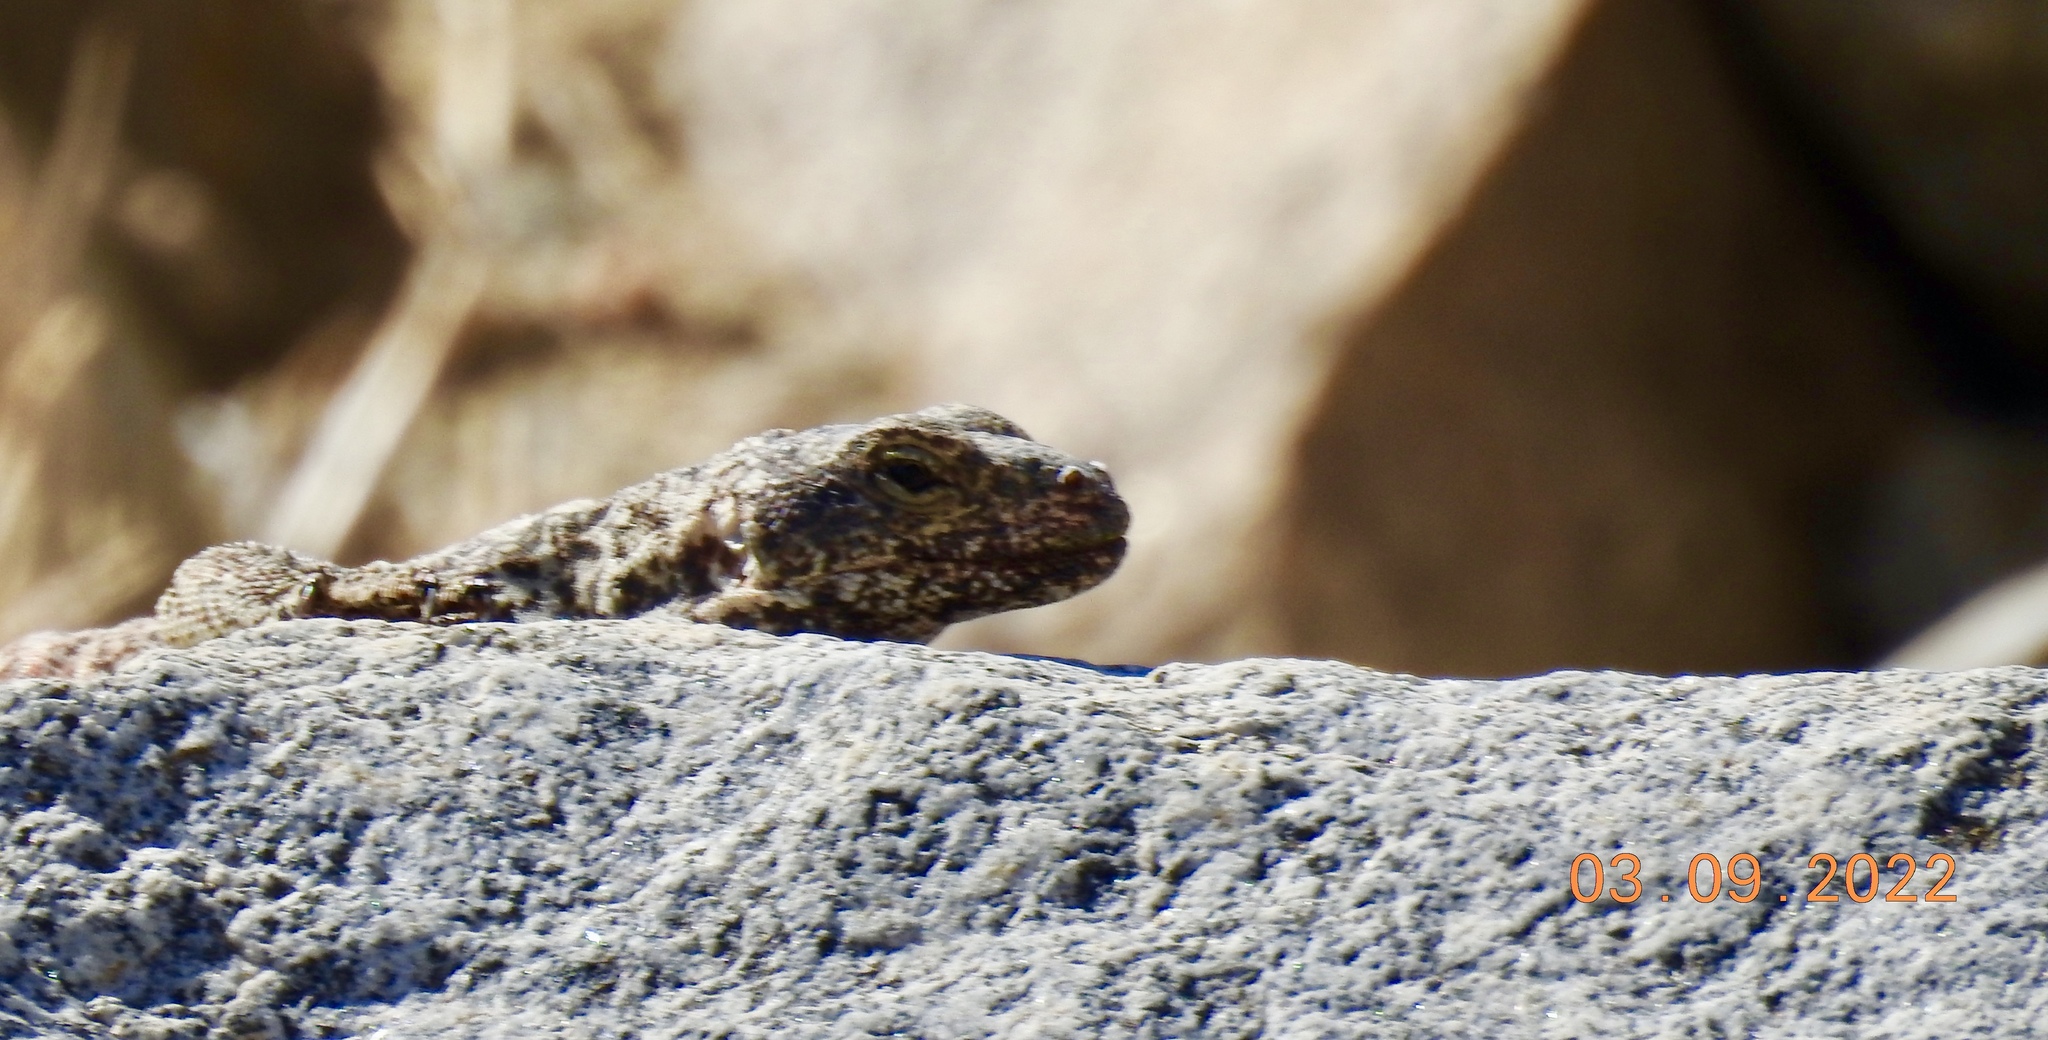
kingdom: Animalia
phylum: Chordata
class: Squamata
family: Iguanidae
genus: Sauromalus
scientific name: Sauromalus ater
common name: Northern chuckwalla
